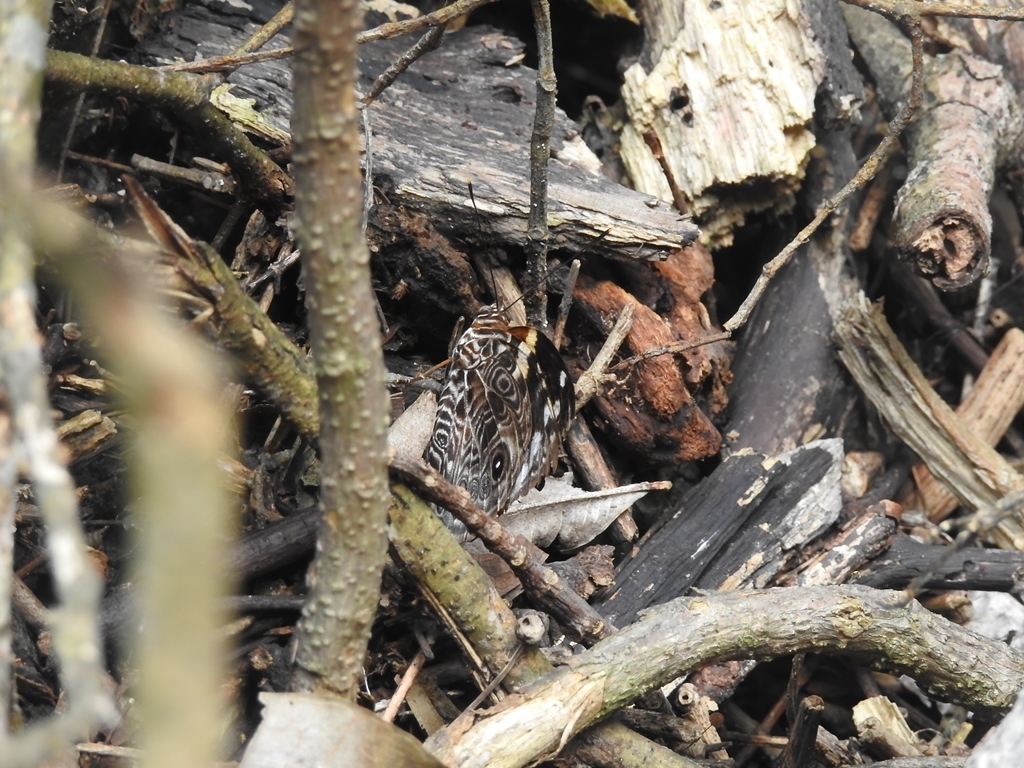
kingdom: Animalia
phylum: Arthropoda
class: Insecta
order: Lepidoptera
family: Nymphalidae
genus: Smyrna
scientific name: Smyrna blomfildia
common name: Blomfild's beauty
